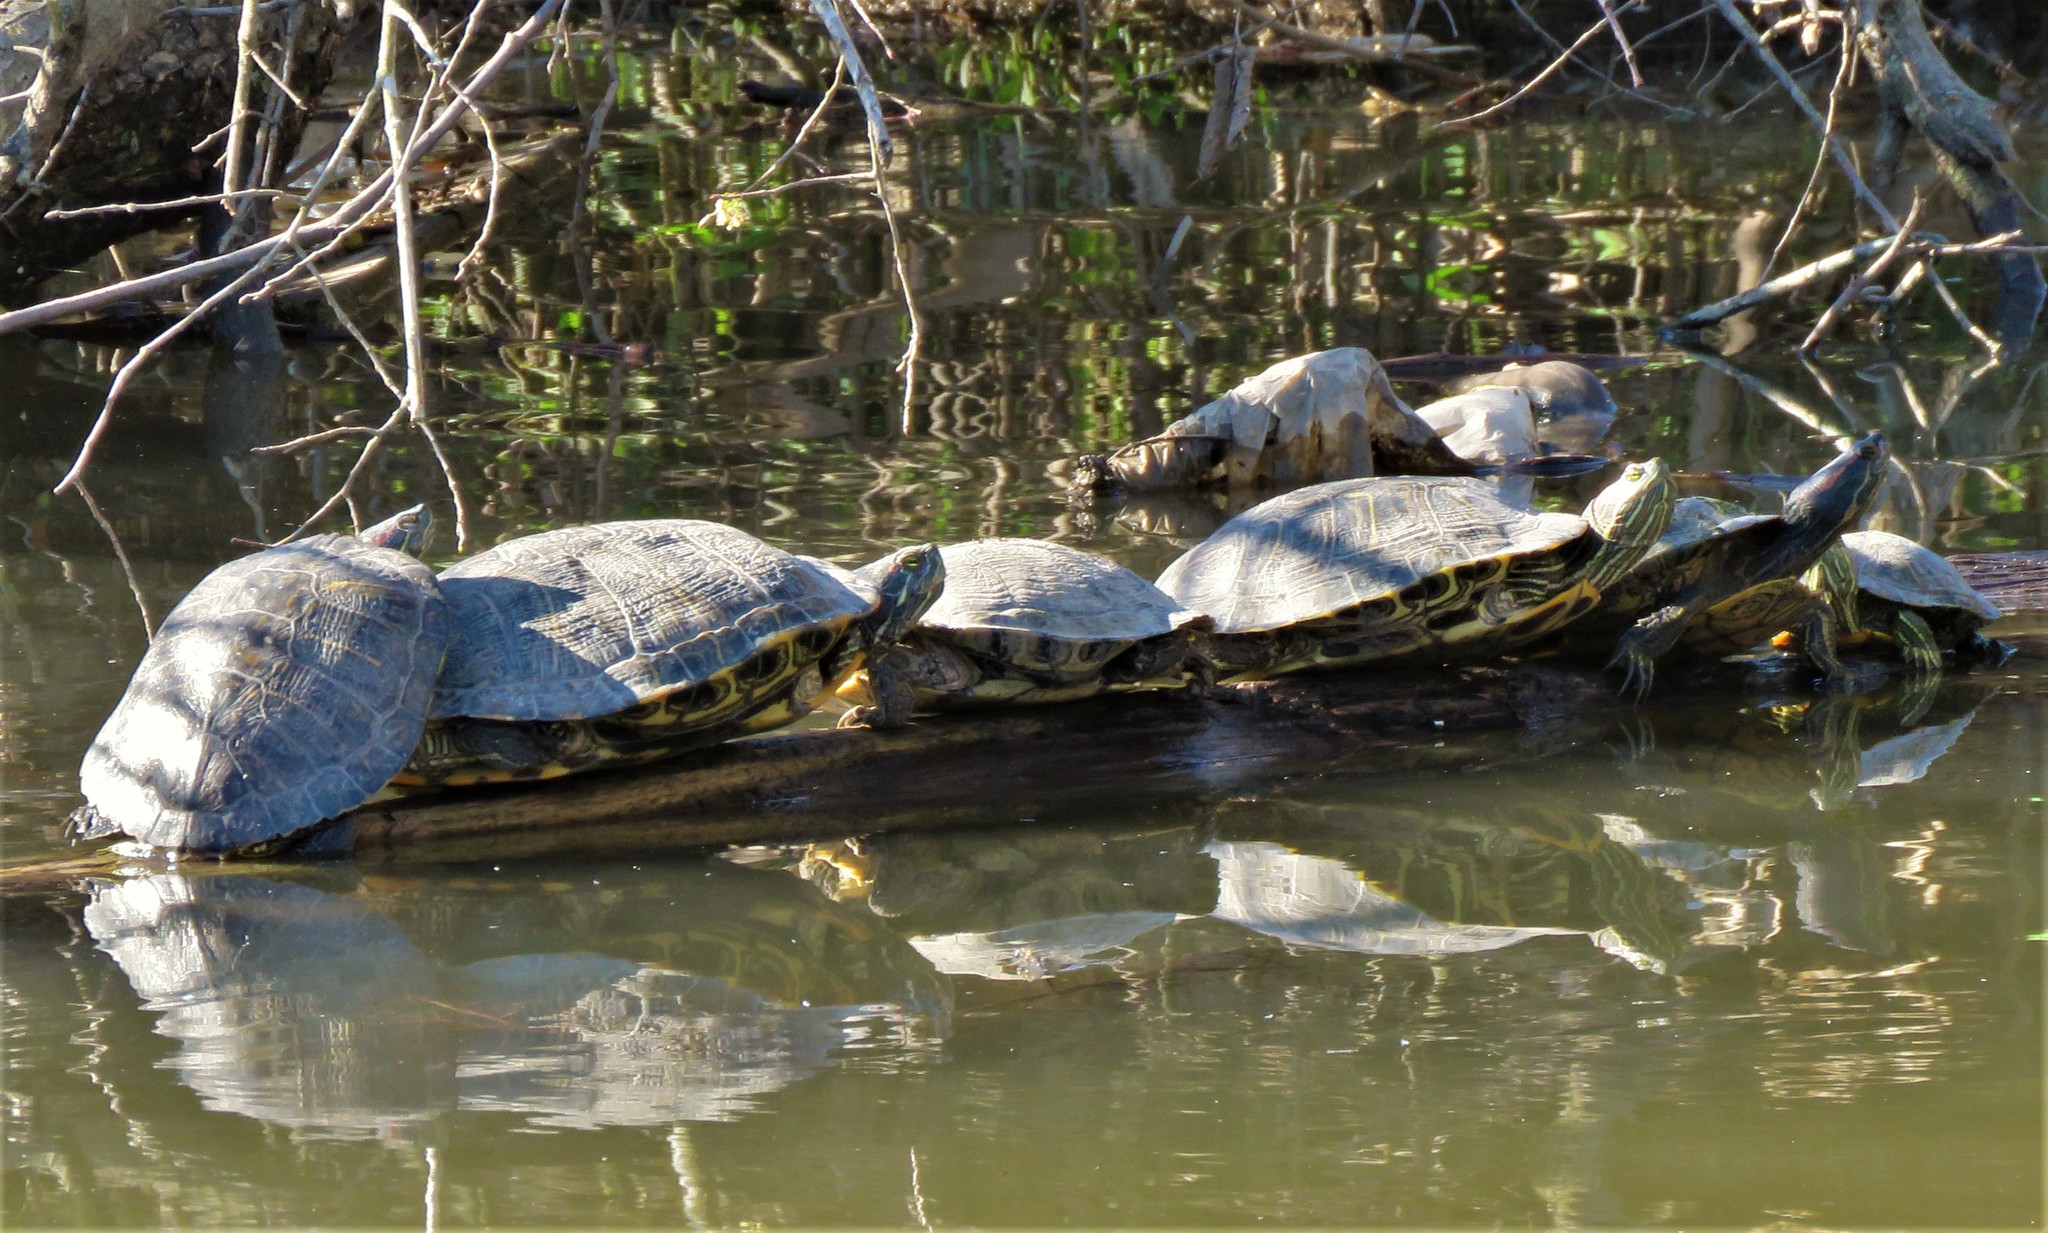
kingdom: Animalia
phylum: Chordata
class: Testudines
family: Emydidae
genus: Trachemys
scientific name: Trachemys scripta
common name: Slider
